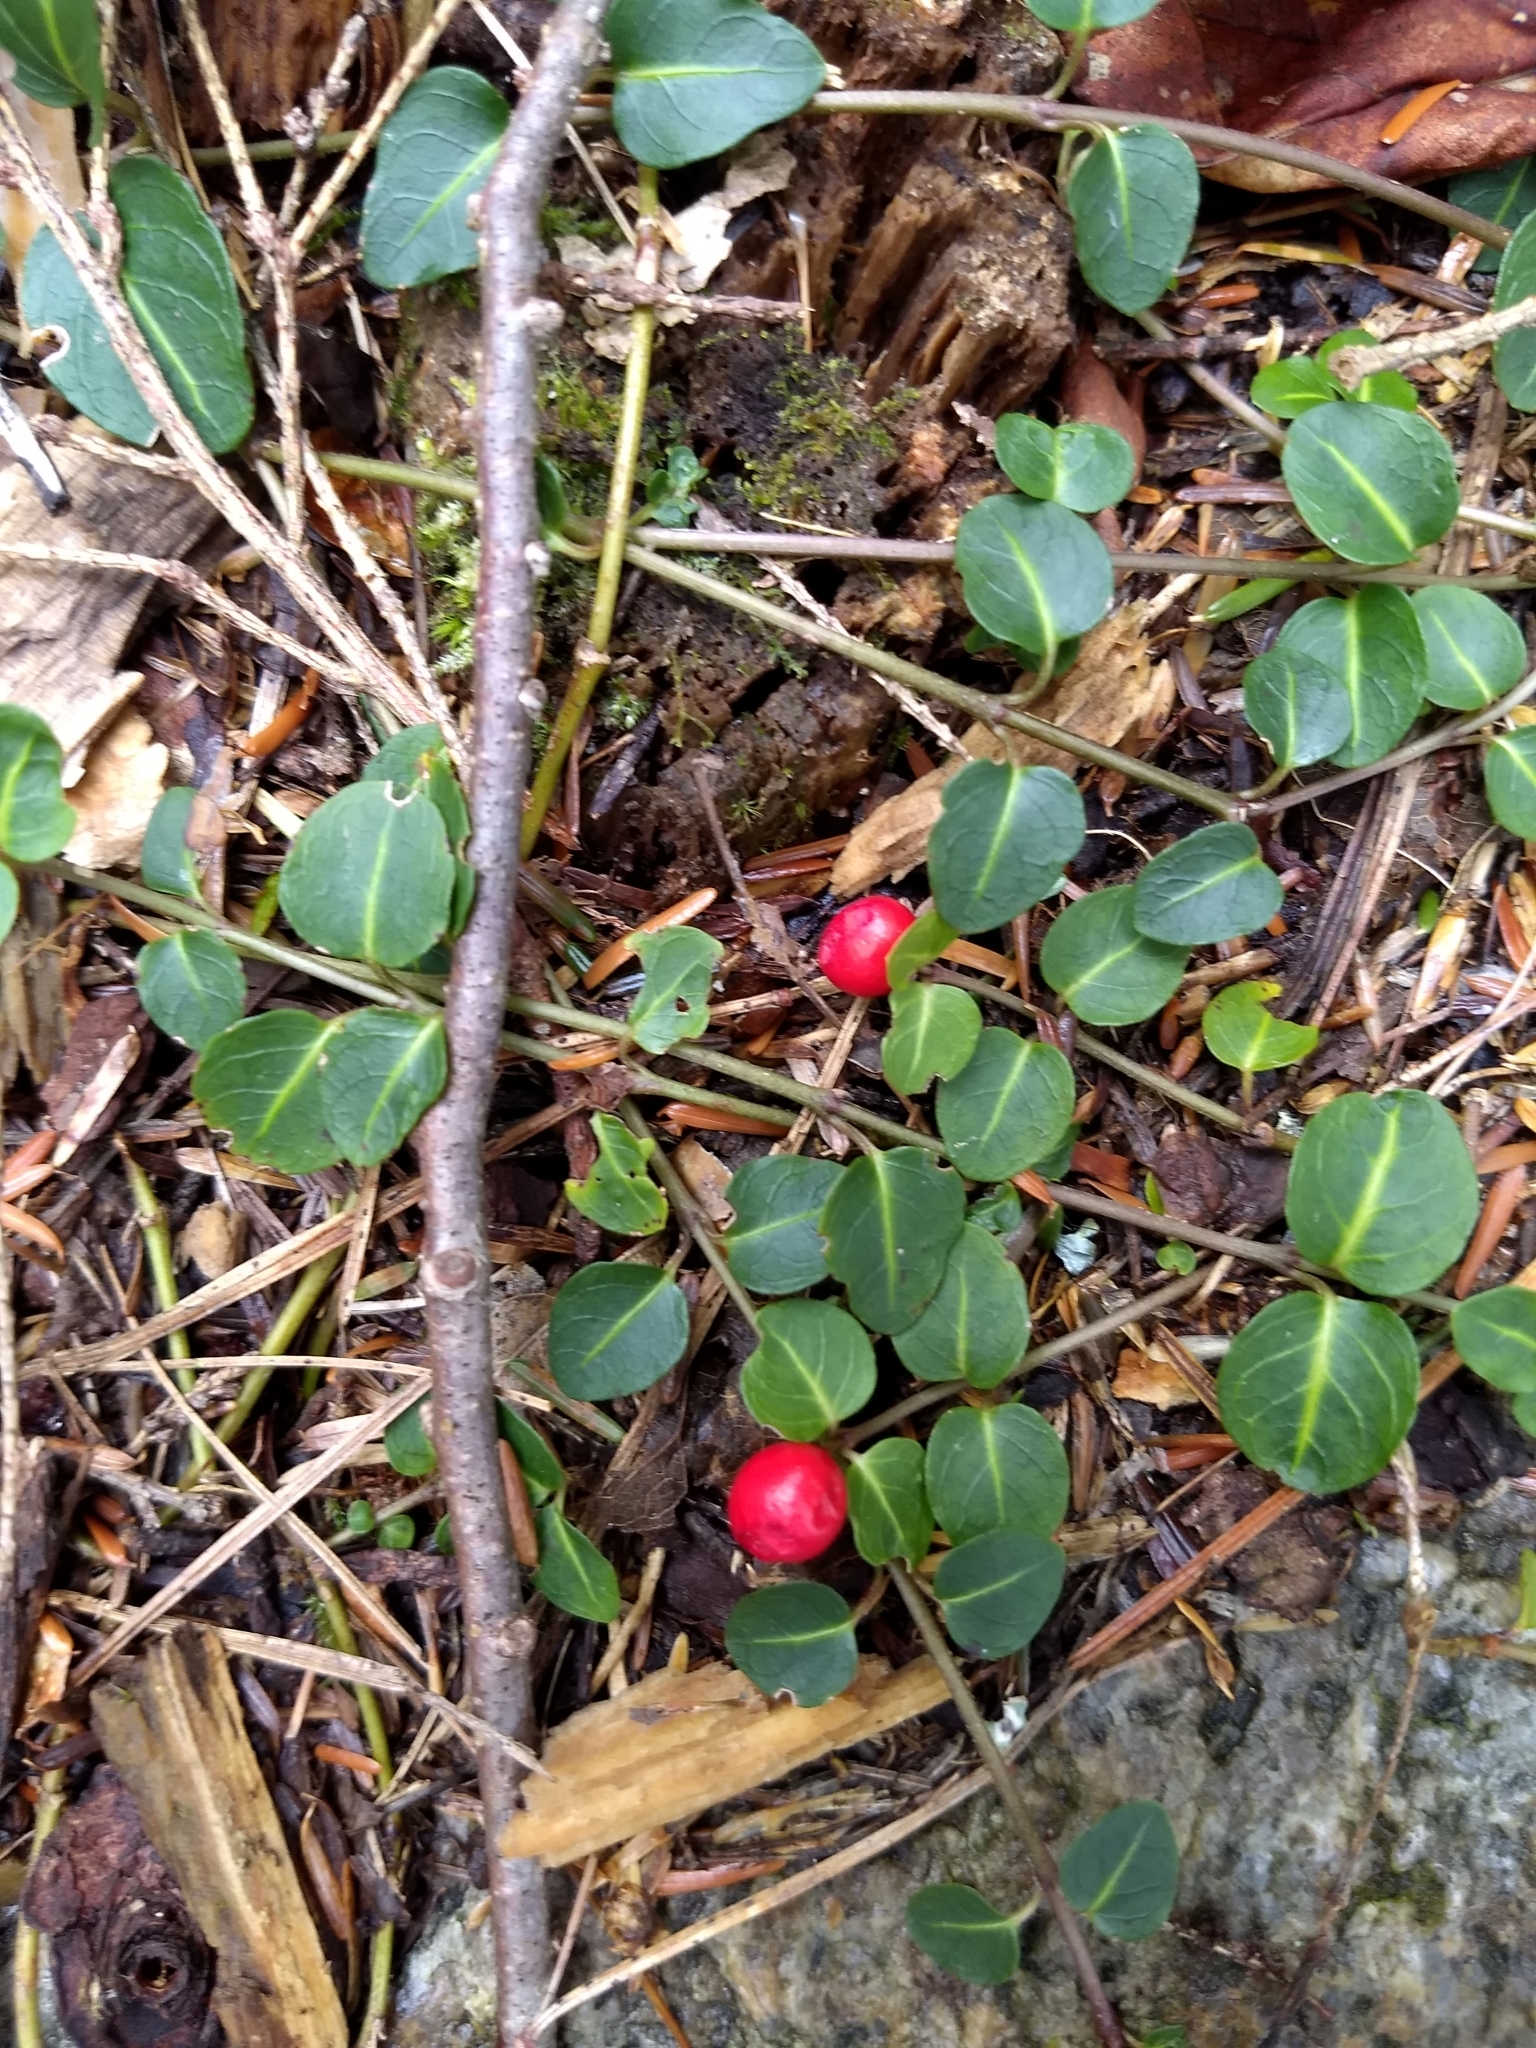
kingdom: Plantae
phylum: Tracheophyta
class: Magnoliopsida
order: Gentianales
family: Rubiaceae
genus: Mitchella
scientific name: Mitchella repens
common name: Partridge-berry
